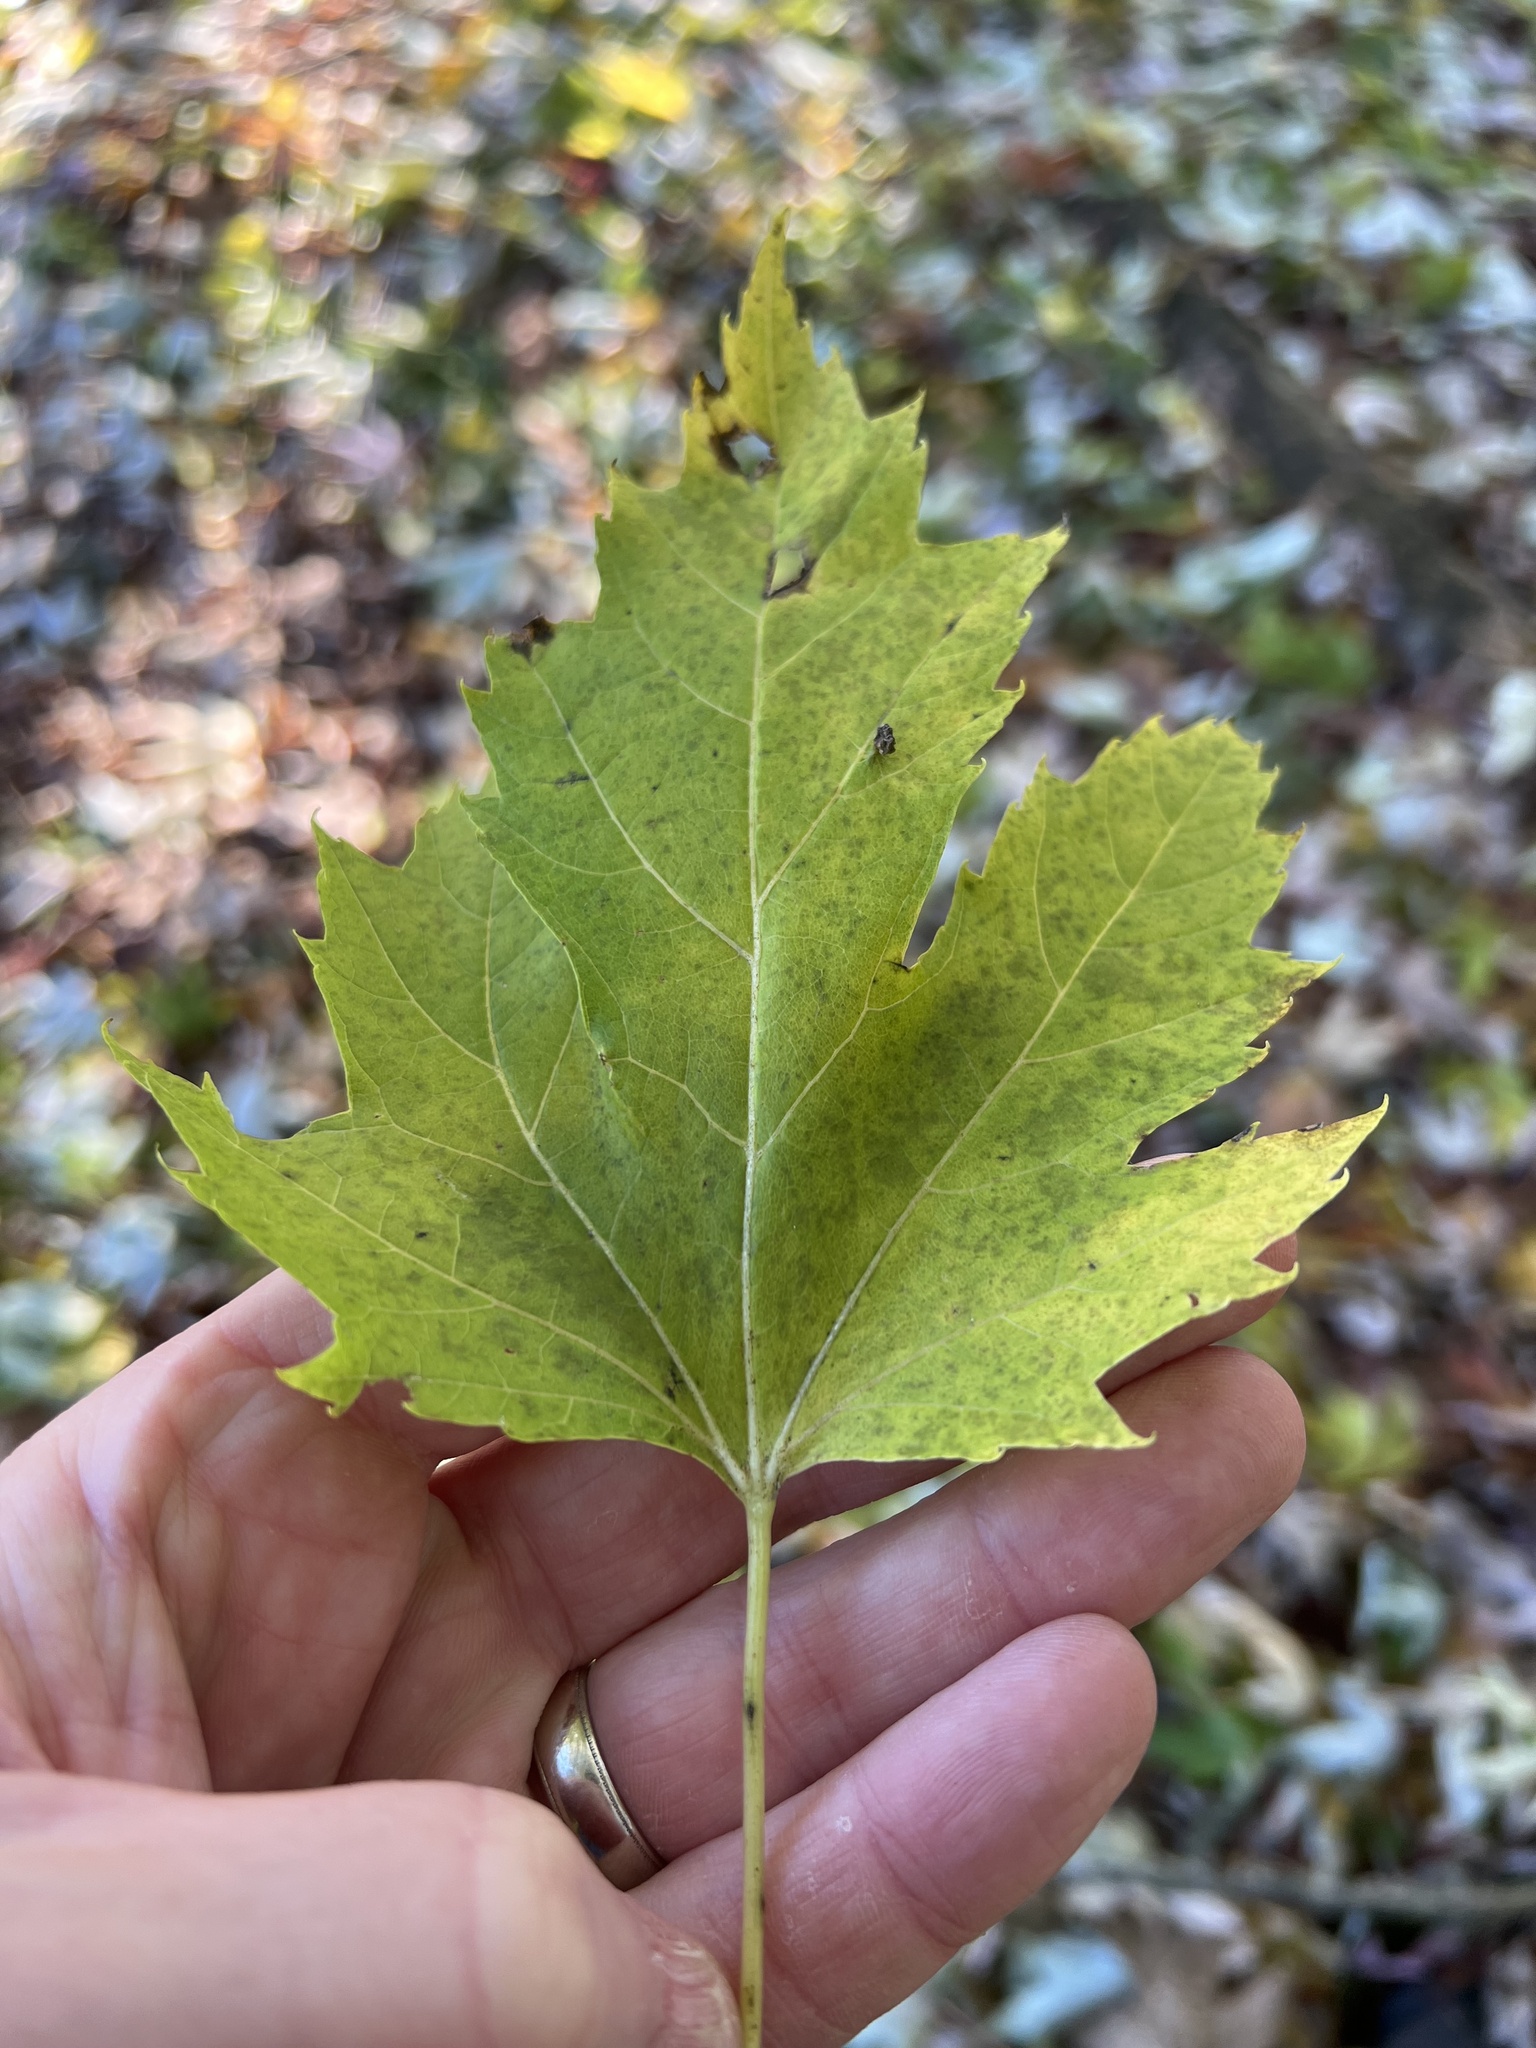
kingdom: Animalia
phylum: Arthropoda
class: Arachnida
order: Trombidiformes
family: Eriophyidae
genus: Vasates
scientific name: Vasates quadripedes
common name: Maple bladder gall mite
